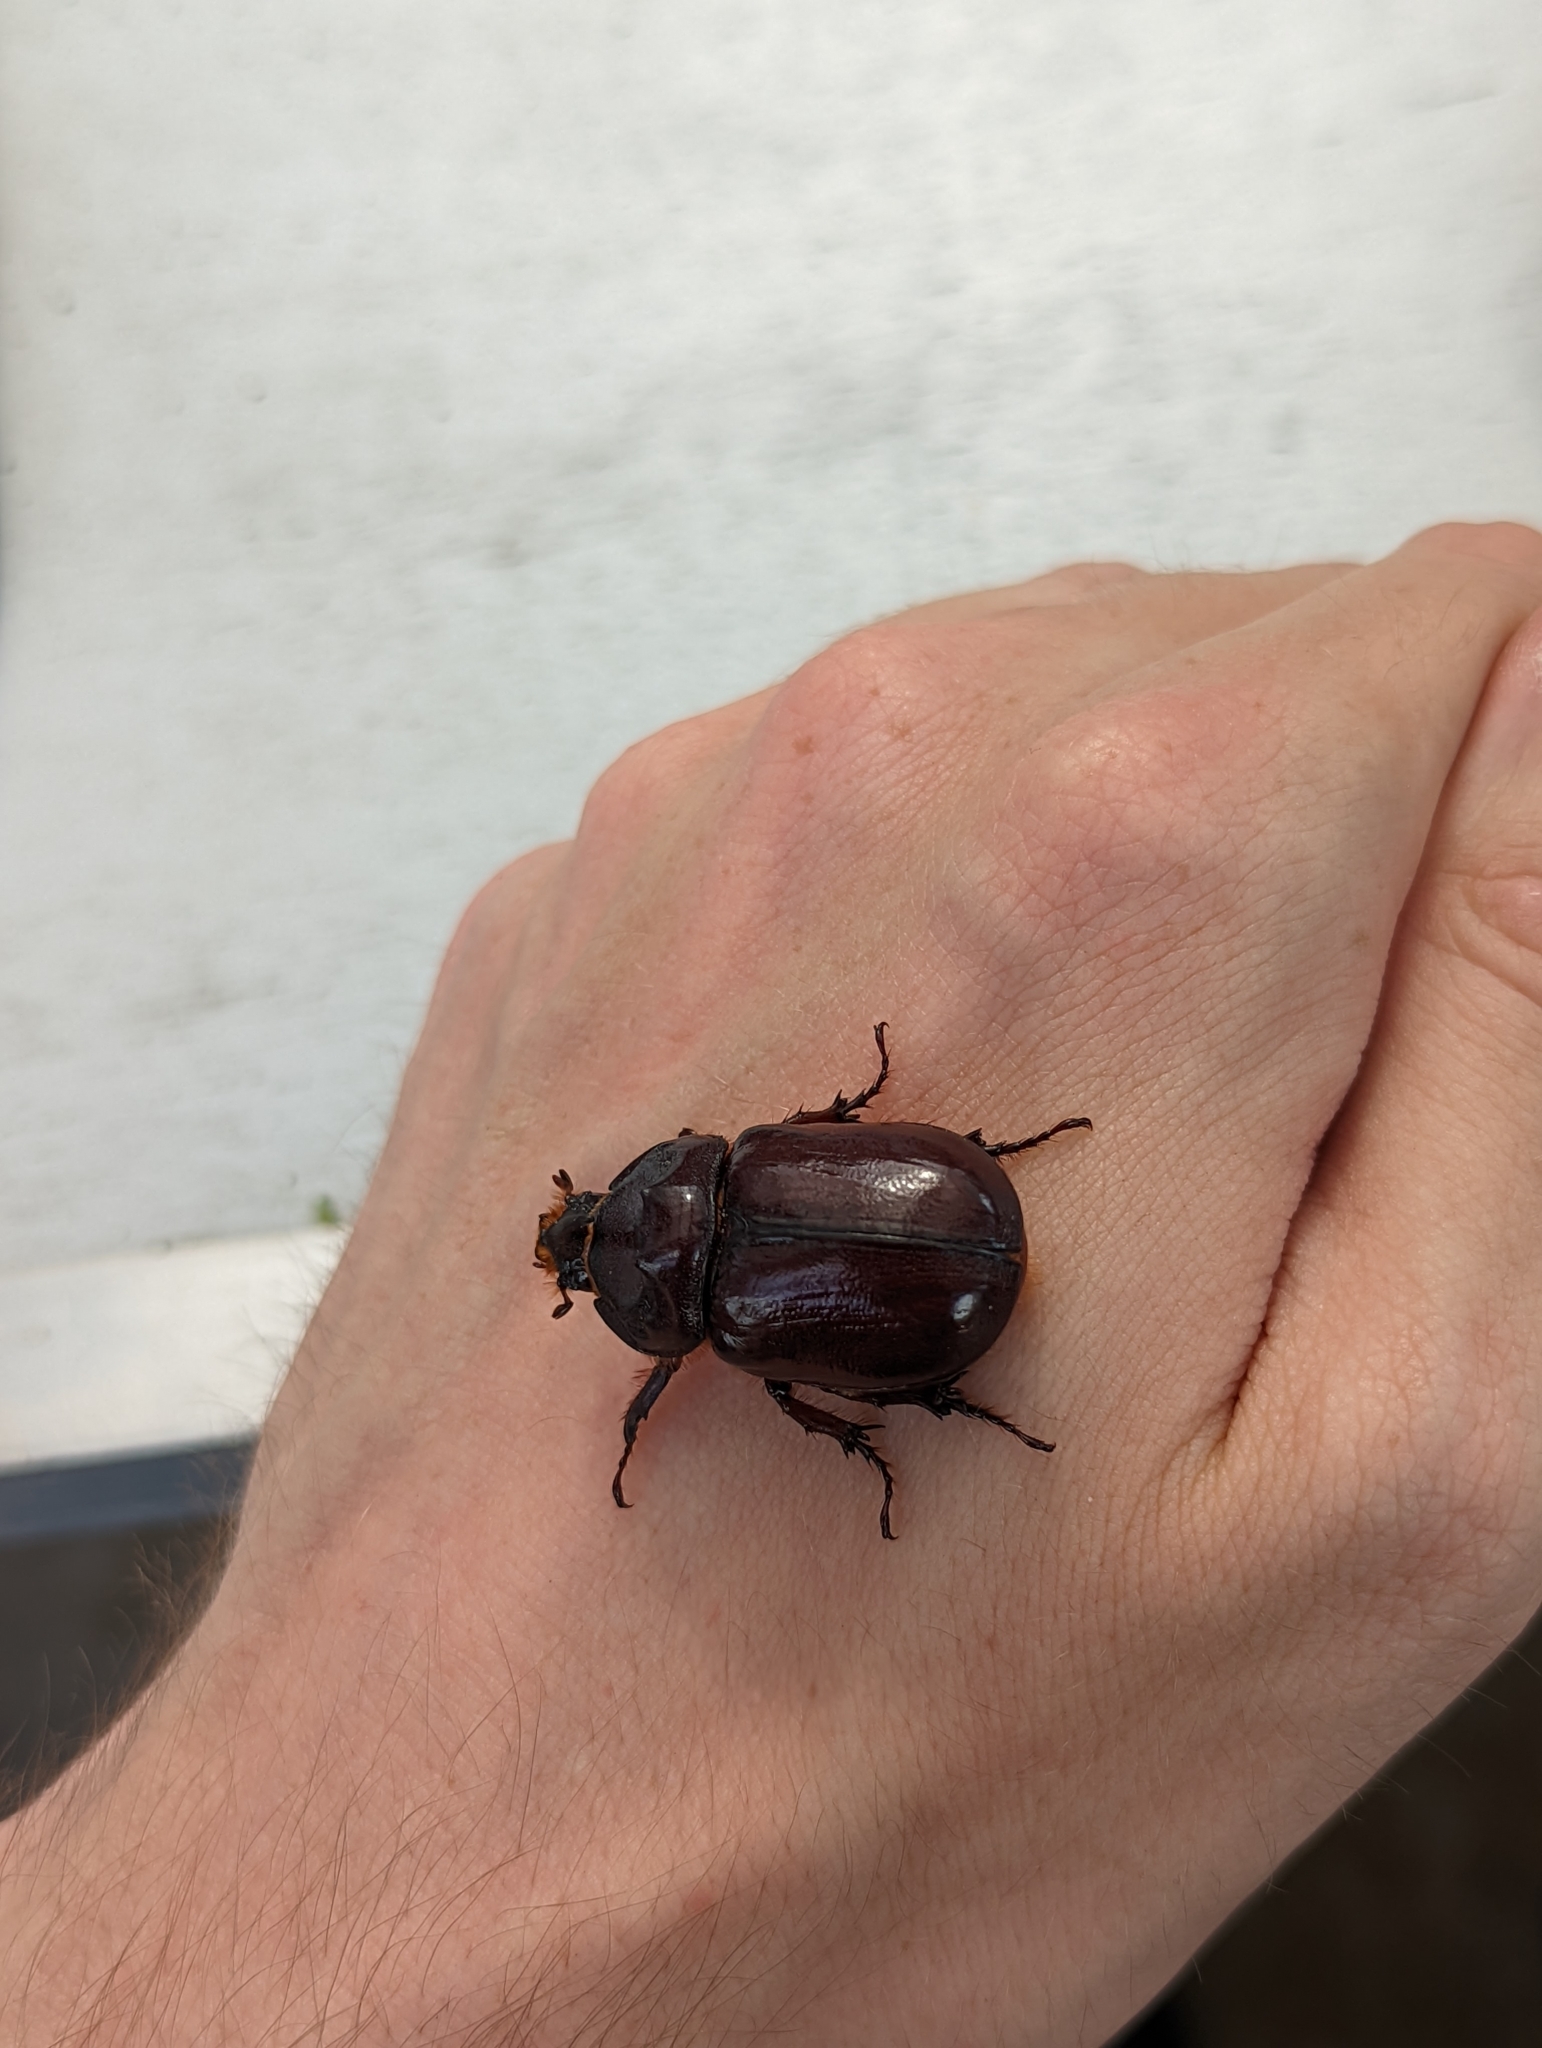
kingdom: Animalia
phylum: Arthropoda
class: Insecta
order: Coleoptera
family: Scarabaeidae
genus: Oryctes
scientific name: Oryctes nasicornis
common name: European rhinoceros beetle
